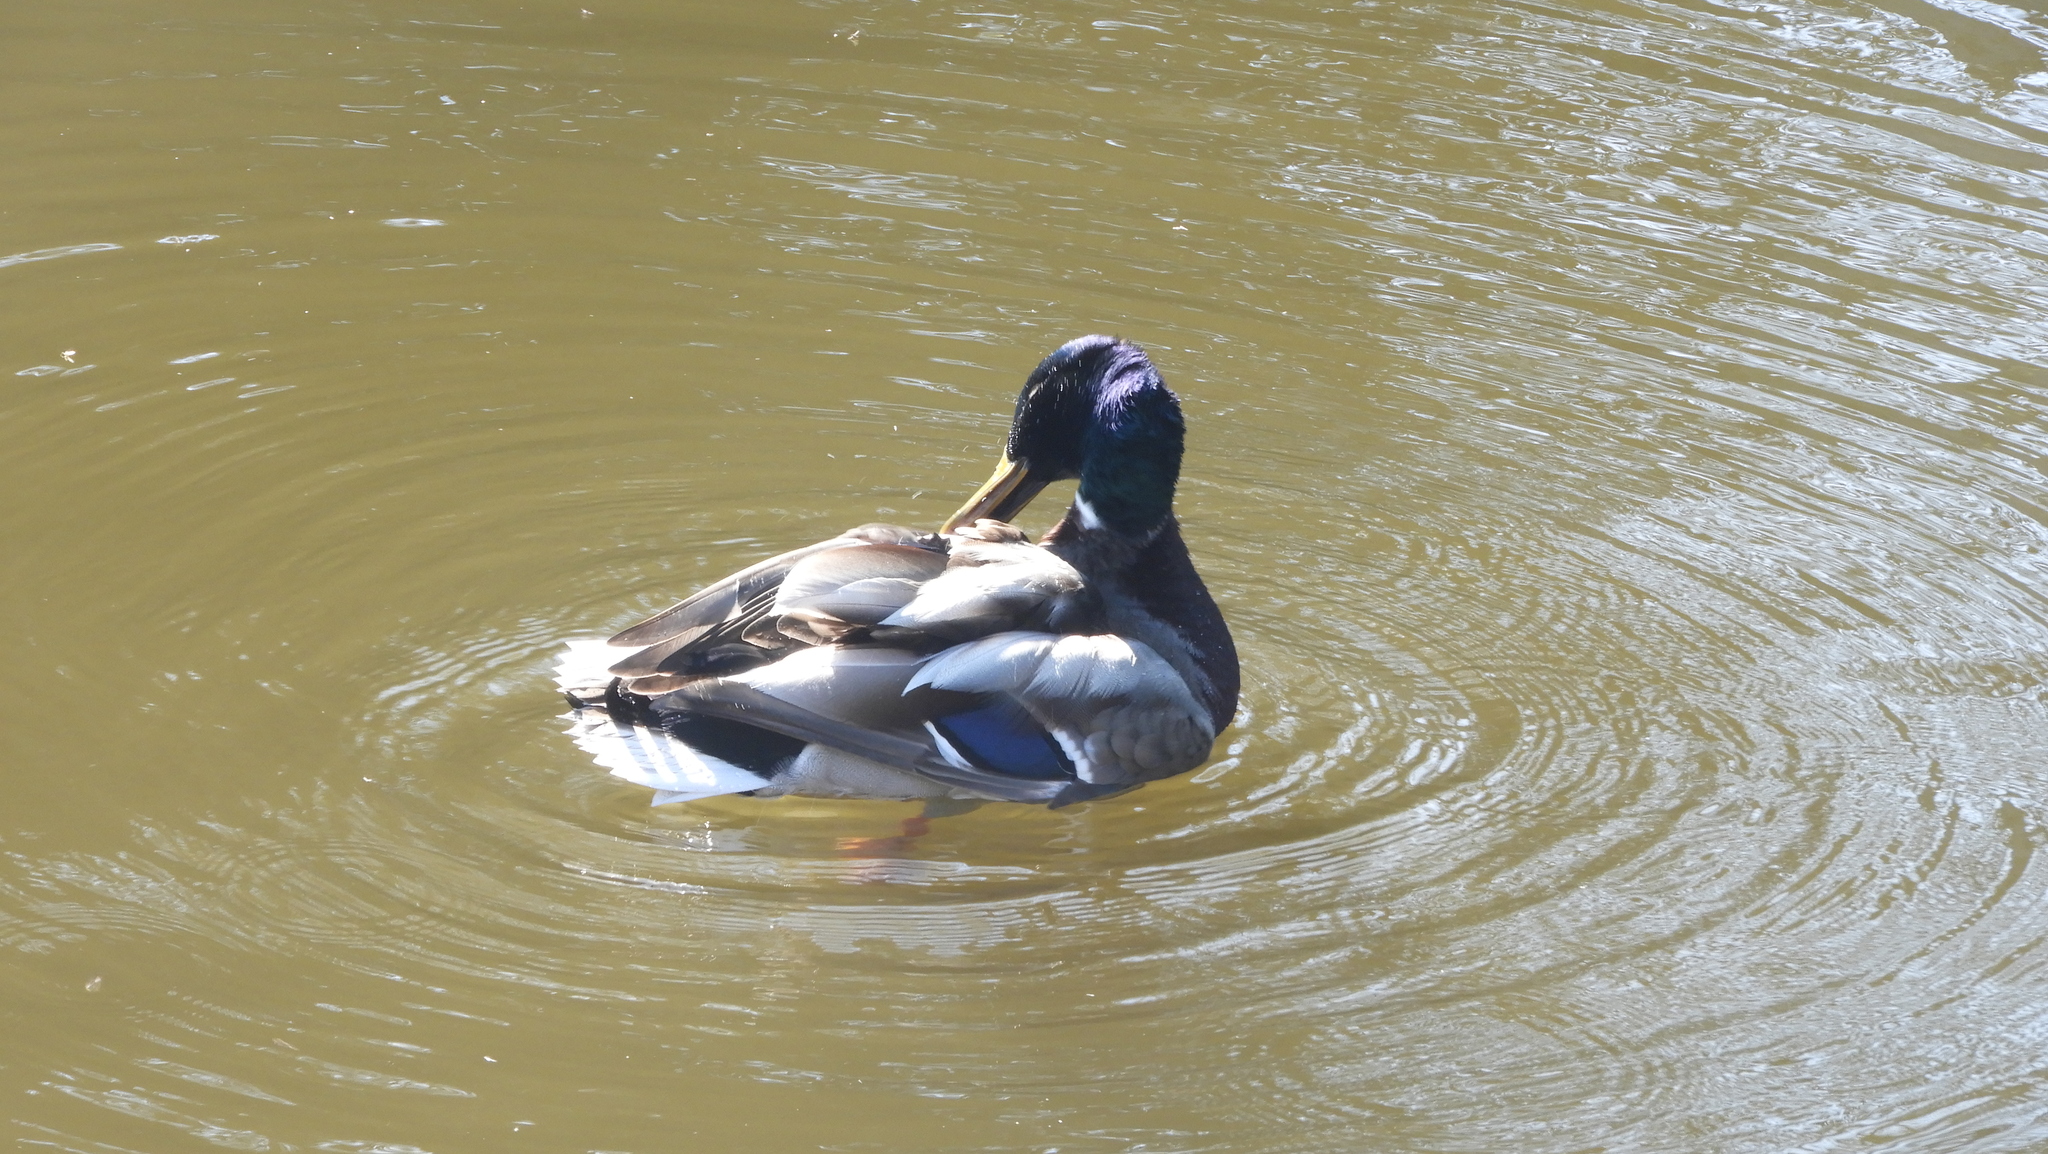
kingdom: Animalia
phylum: Chordata
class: Aves
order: Anseriformes
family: Anatidae
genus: Anas
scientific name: Anas platyrhynchos
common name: Mallard
